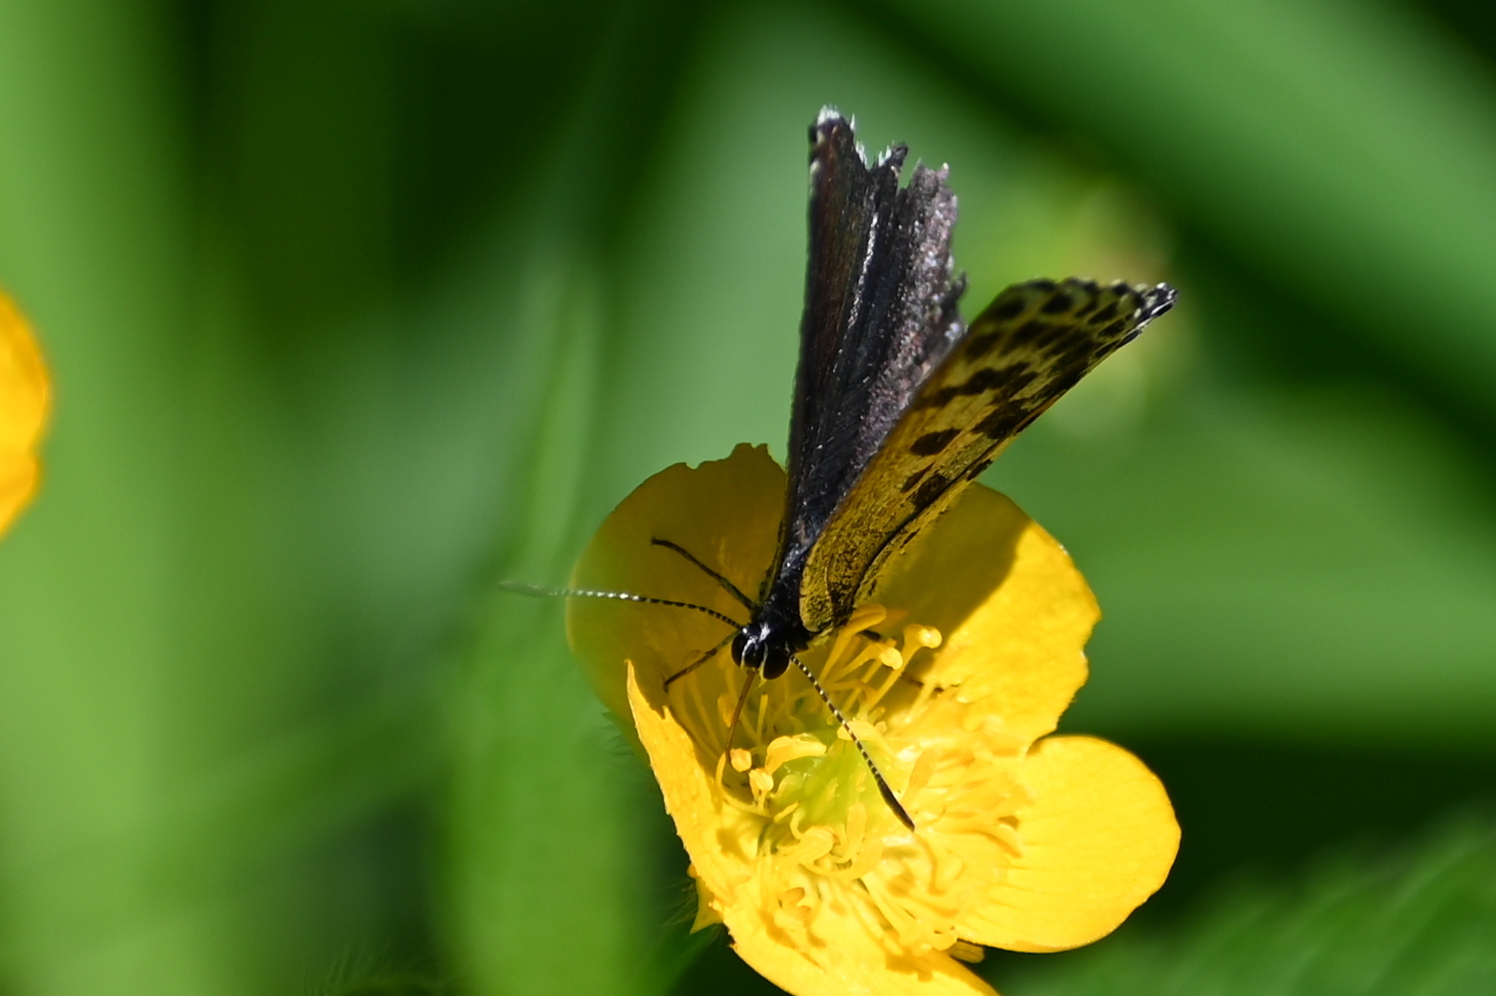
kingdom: Animalia
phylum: Arthropoda
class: Insecta
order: Lepidoptera
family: Lycaenidae
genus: Scolitantides
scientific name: Scolitantides orion
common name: Chequered blue
